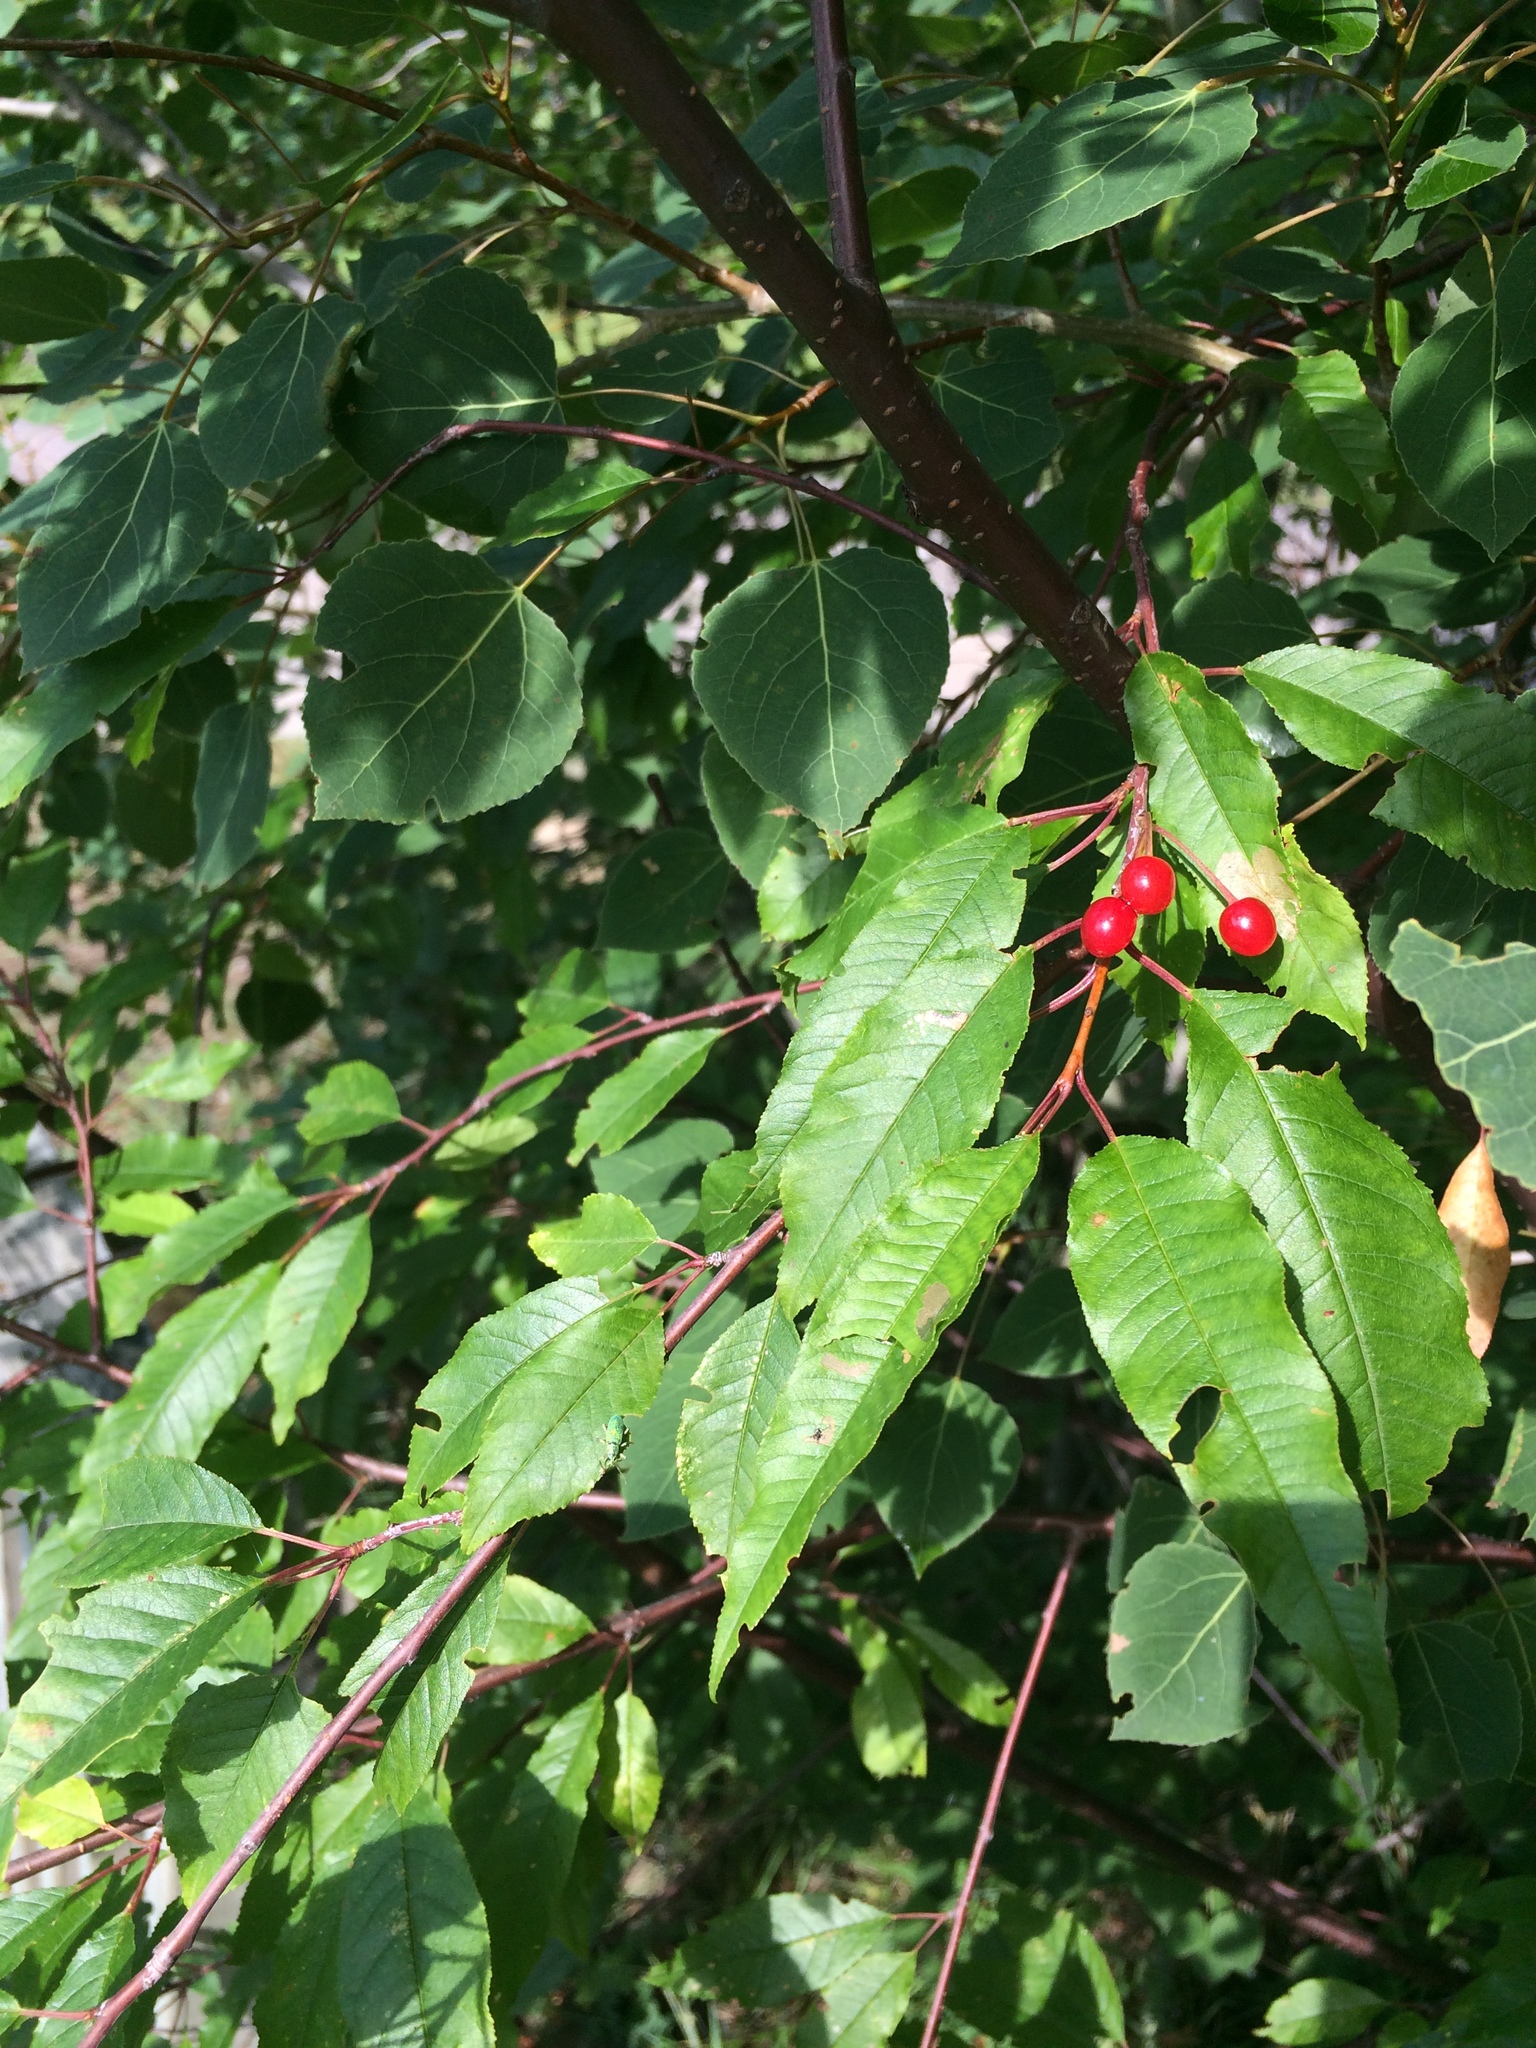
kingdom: Plantae
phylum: Tracheophyta
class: Magnoliopsida
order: Rosales
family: Rosaceae
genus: Prunus
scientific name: Prunus pensylvanica
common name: Pin cherry
